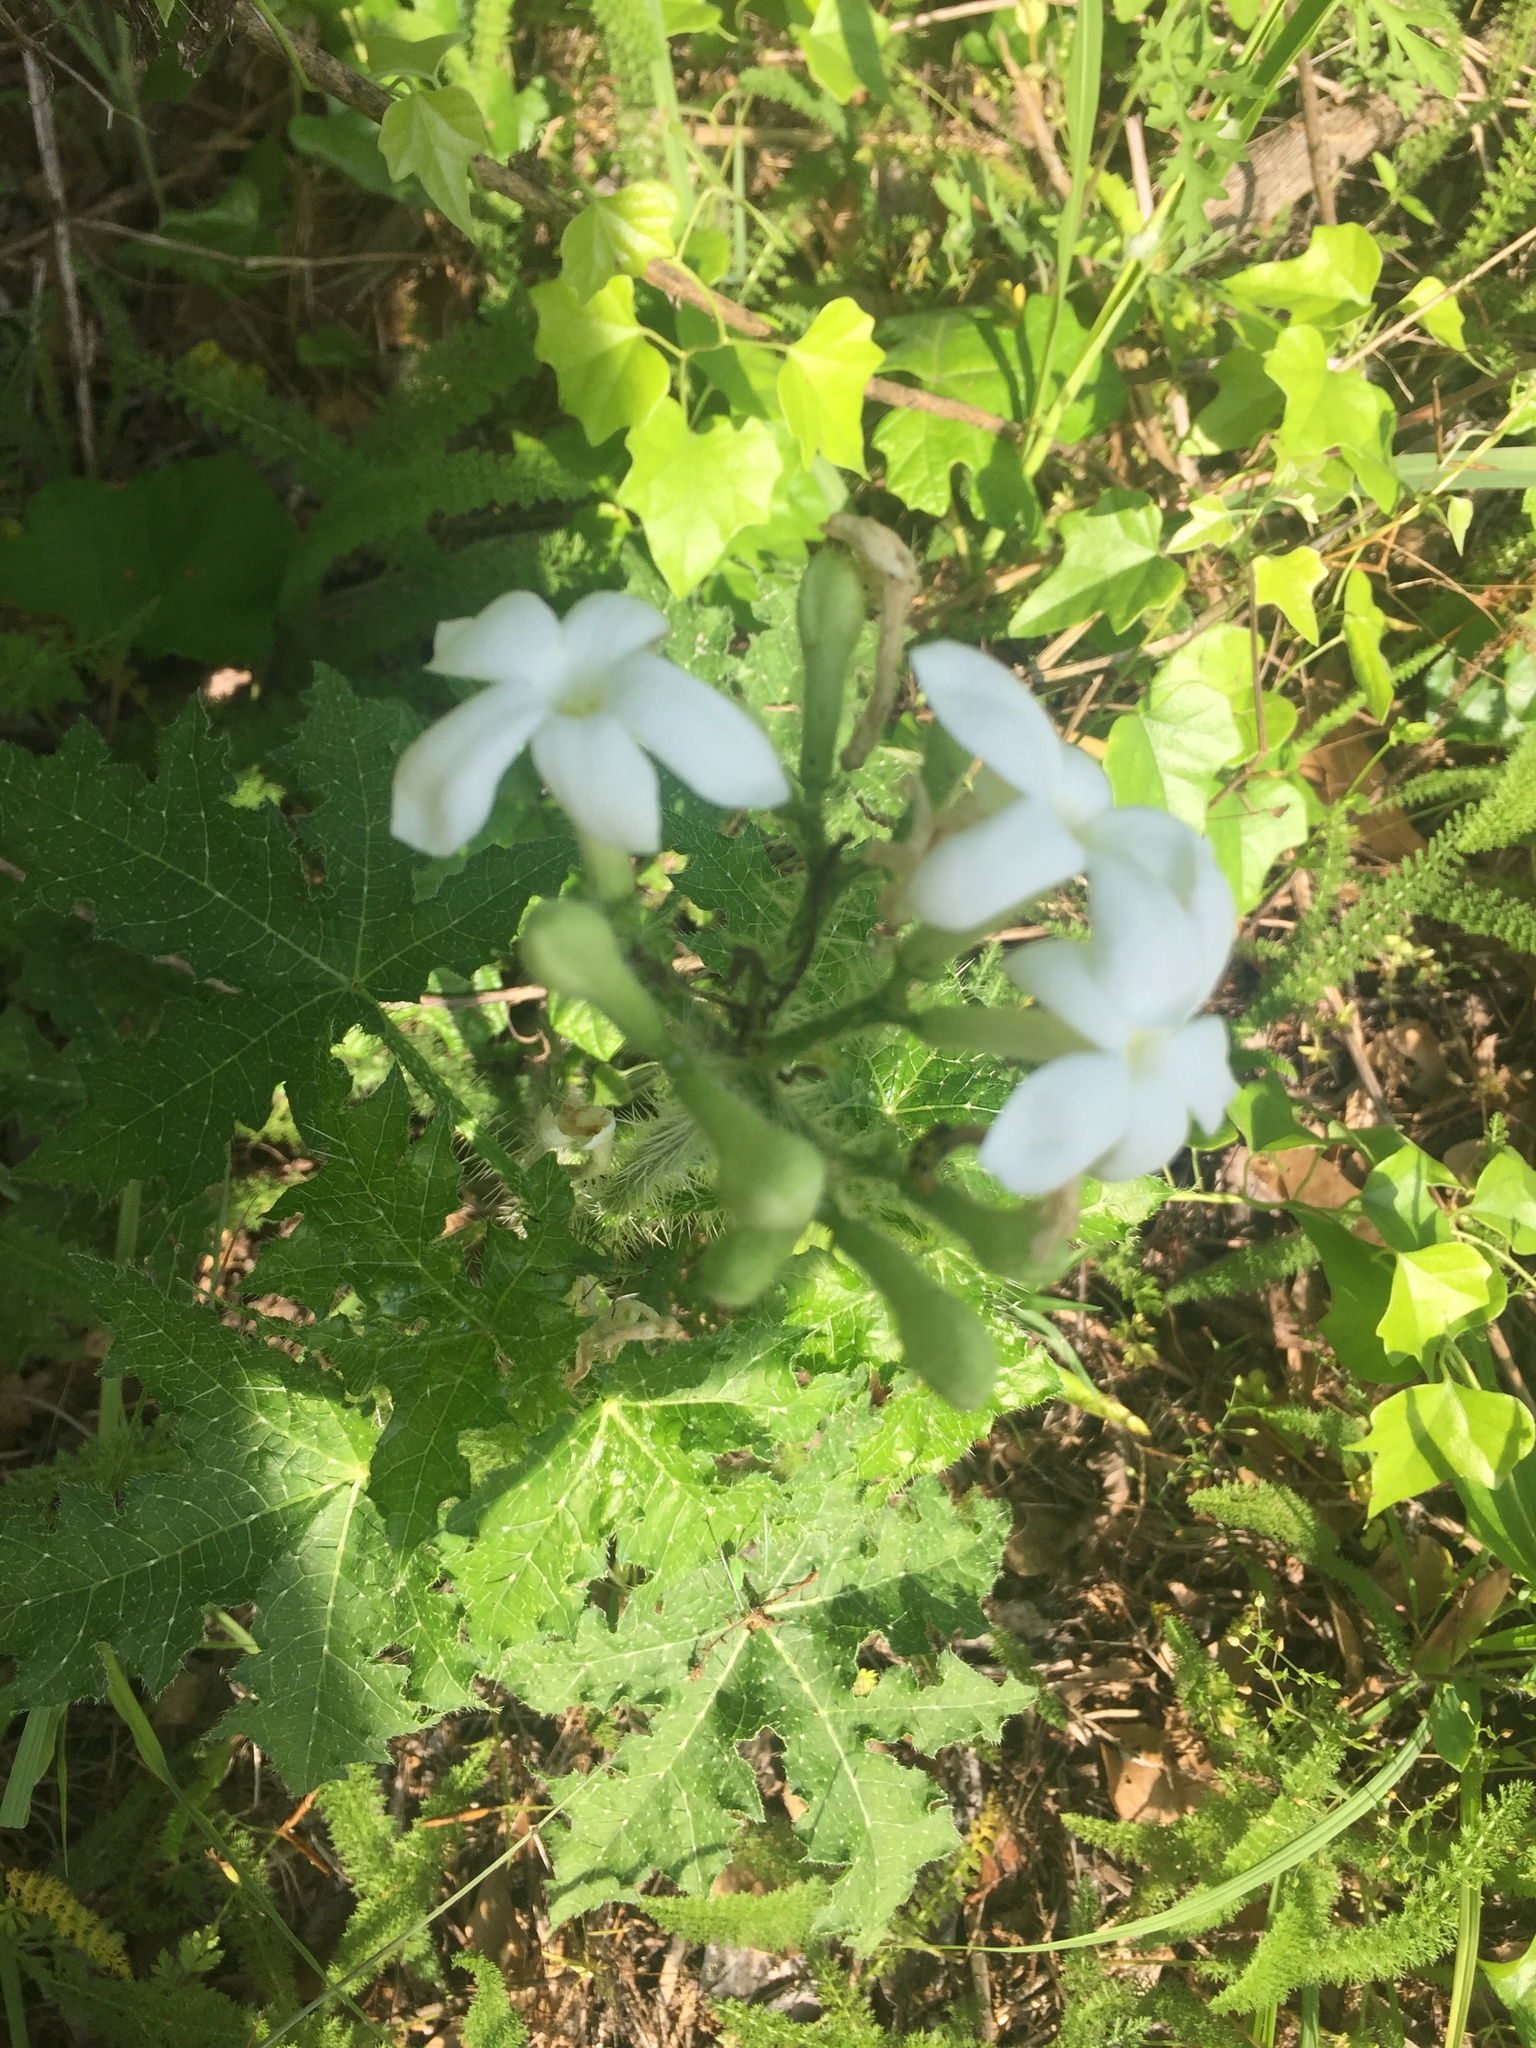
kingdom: Plantae
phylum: Tracheophyta
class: Magnoliopsida
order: Malpighiales
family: Euphorbiaceae
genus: Cnidoscolus
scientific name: Cnidoscolus texanus
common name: Texas bull-nettle
